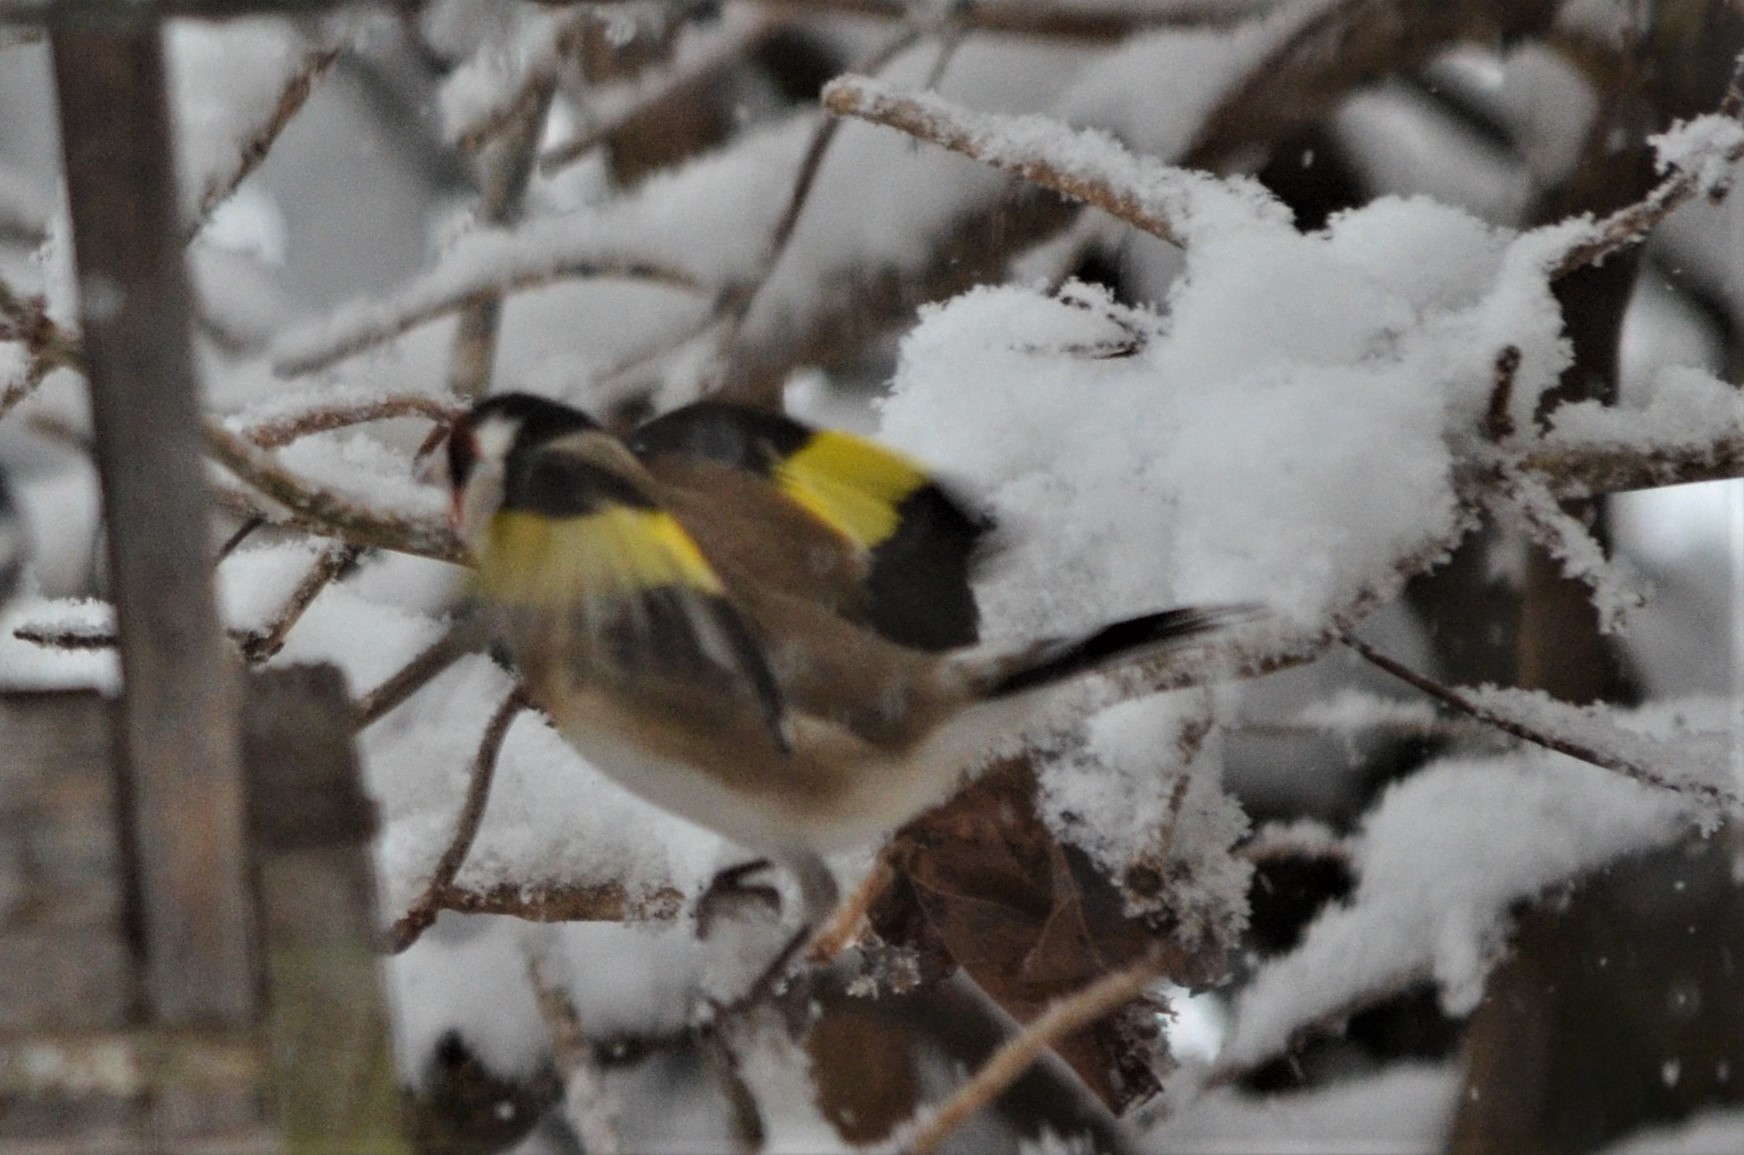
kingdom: Animalia
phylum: Chordata
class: Aves
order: Passeriformes
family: Fringillidae
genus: Carduelis
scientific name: Carduelis carduelis
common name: European goldfinch
